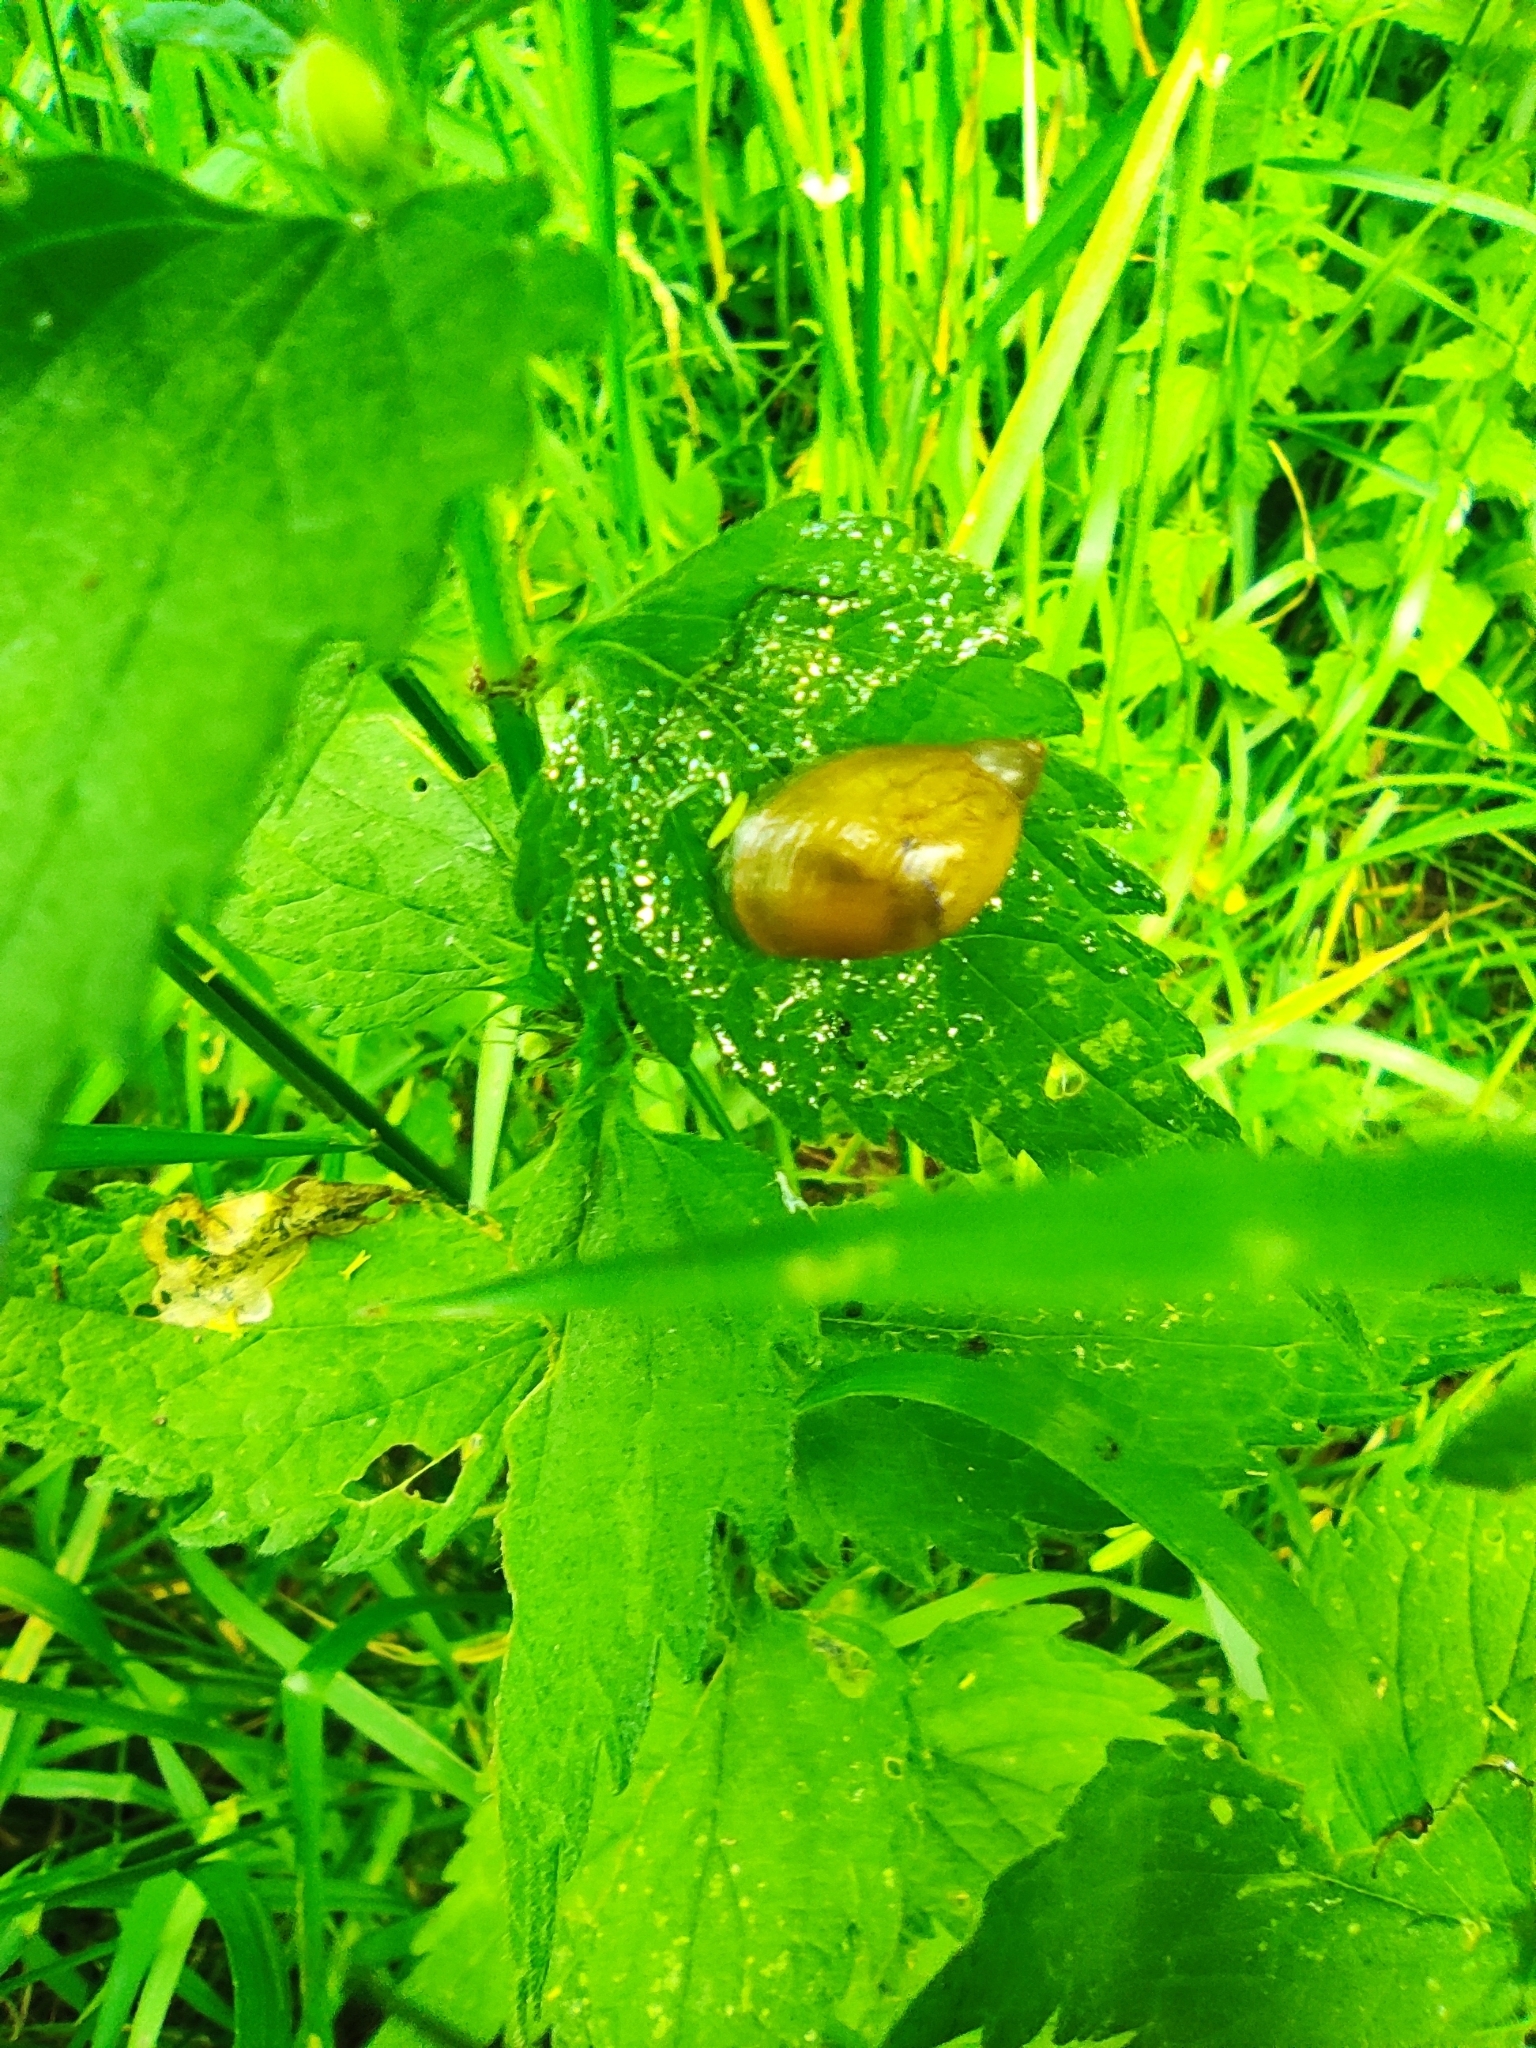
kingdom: Animalia
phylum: Mollusca
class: Gastropoda
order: Stylommatophora
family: Succineidae
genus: Succinea
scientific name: Succinea putris
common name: European ambersnail
